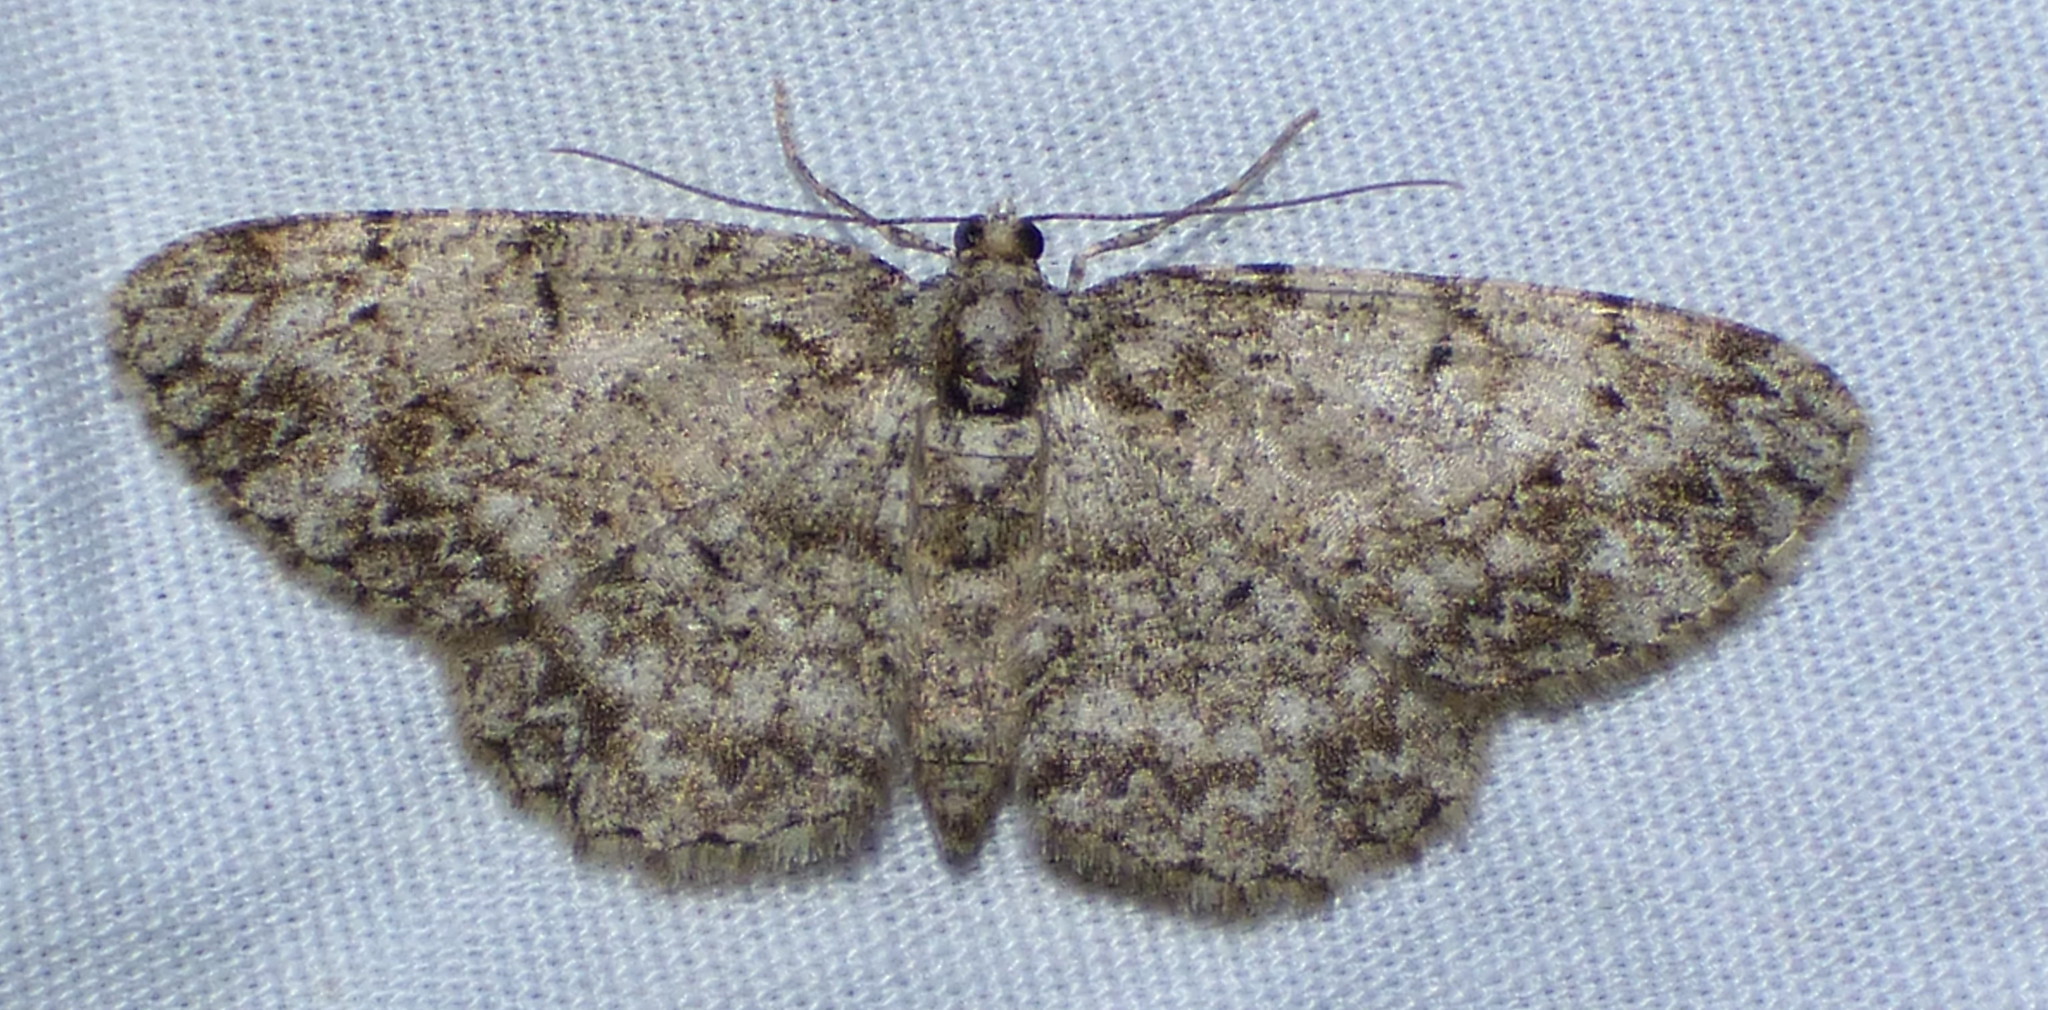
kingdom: Animalia
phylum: Arthropoda
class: Insecta
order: Lepidoptera
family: Geometridae
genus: Protoboarmia
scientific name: Protoboarmia porcelaria
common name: Porcelain gray
